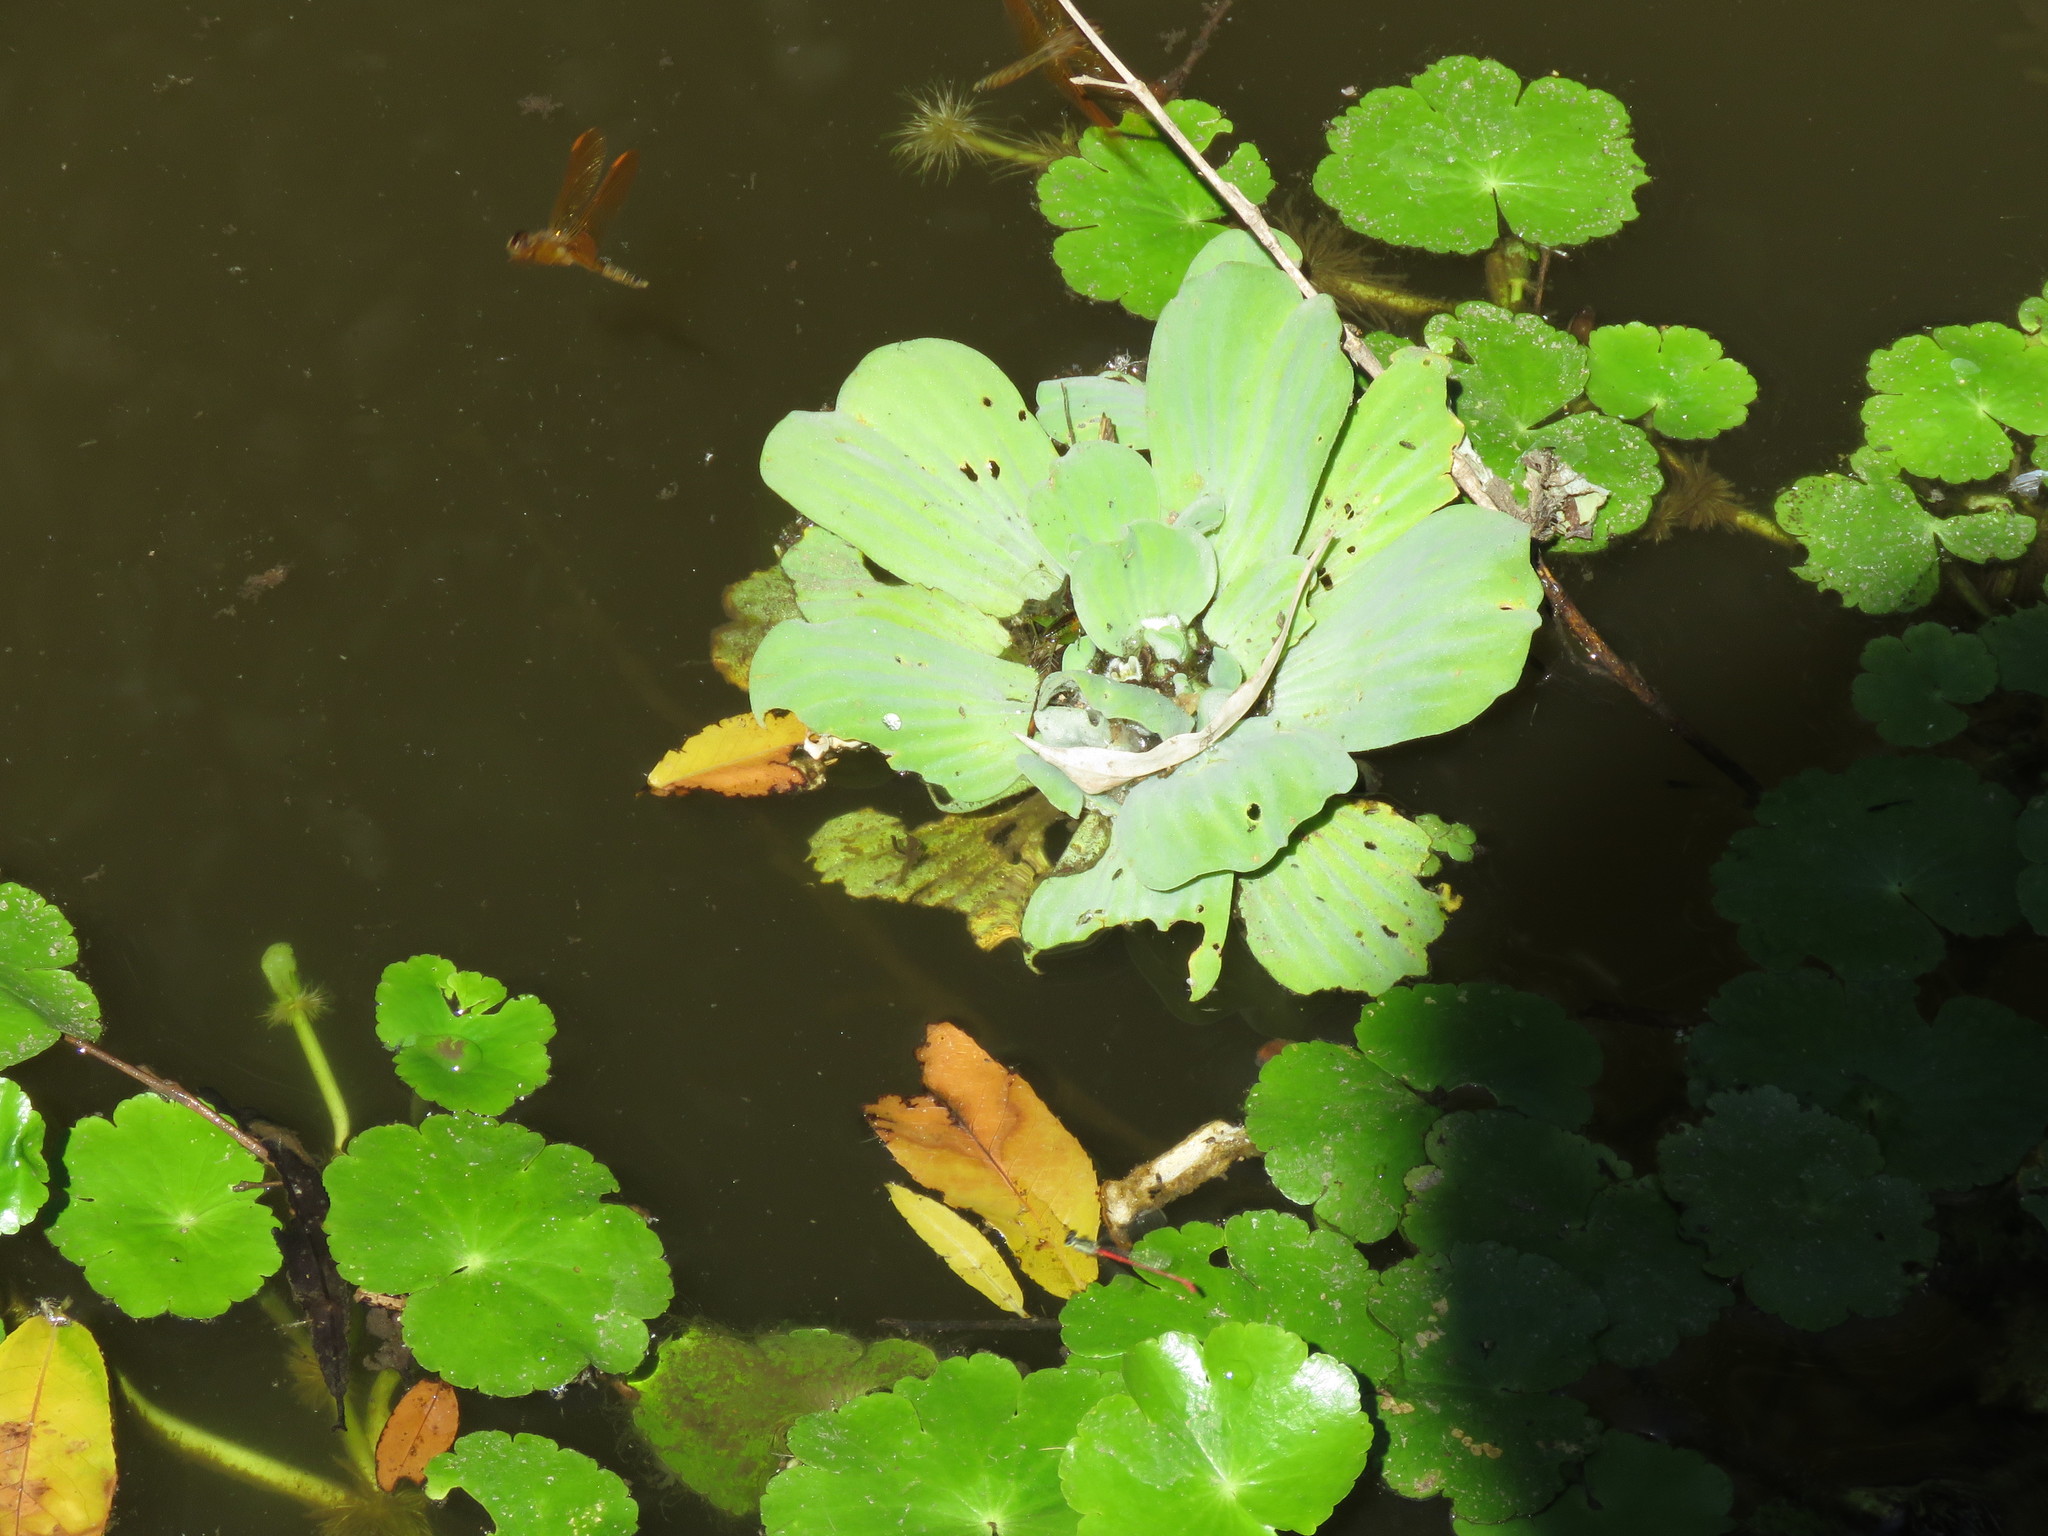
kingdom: Plantae
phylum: Tracheophyta
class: Liliopsida
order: Alismatales
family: Araceae
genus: Pistia
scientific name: Pistia stratiotes
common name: Water lettuce
